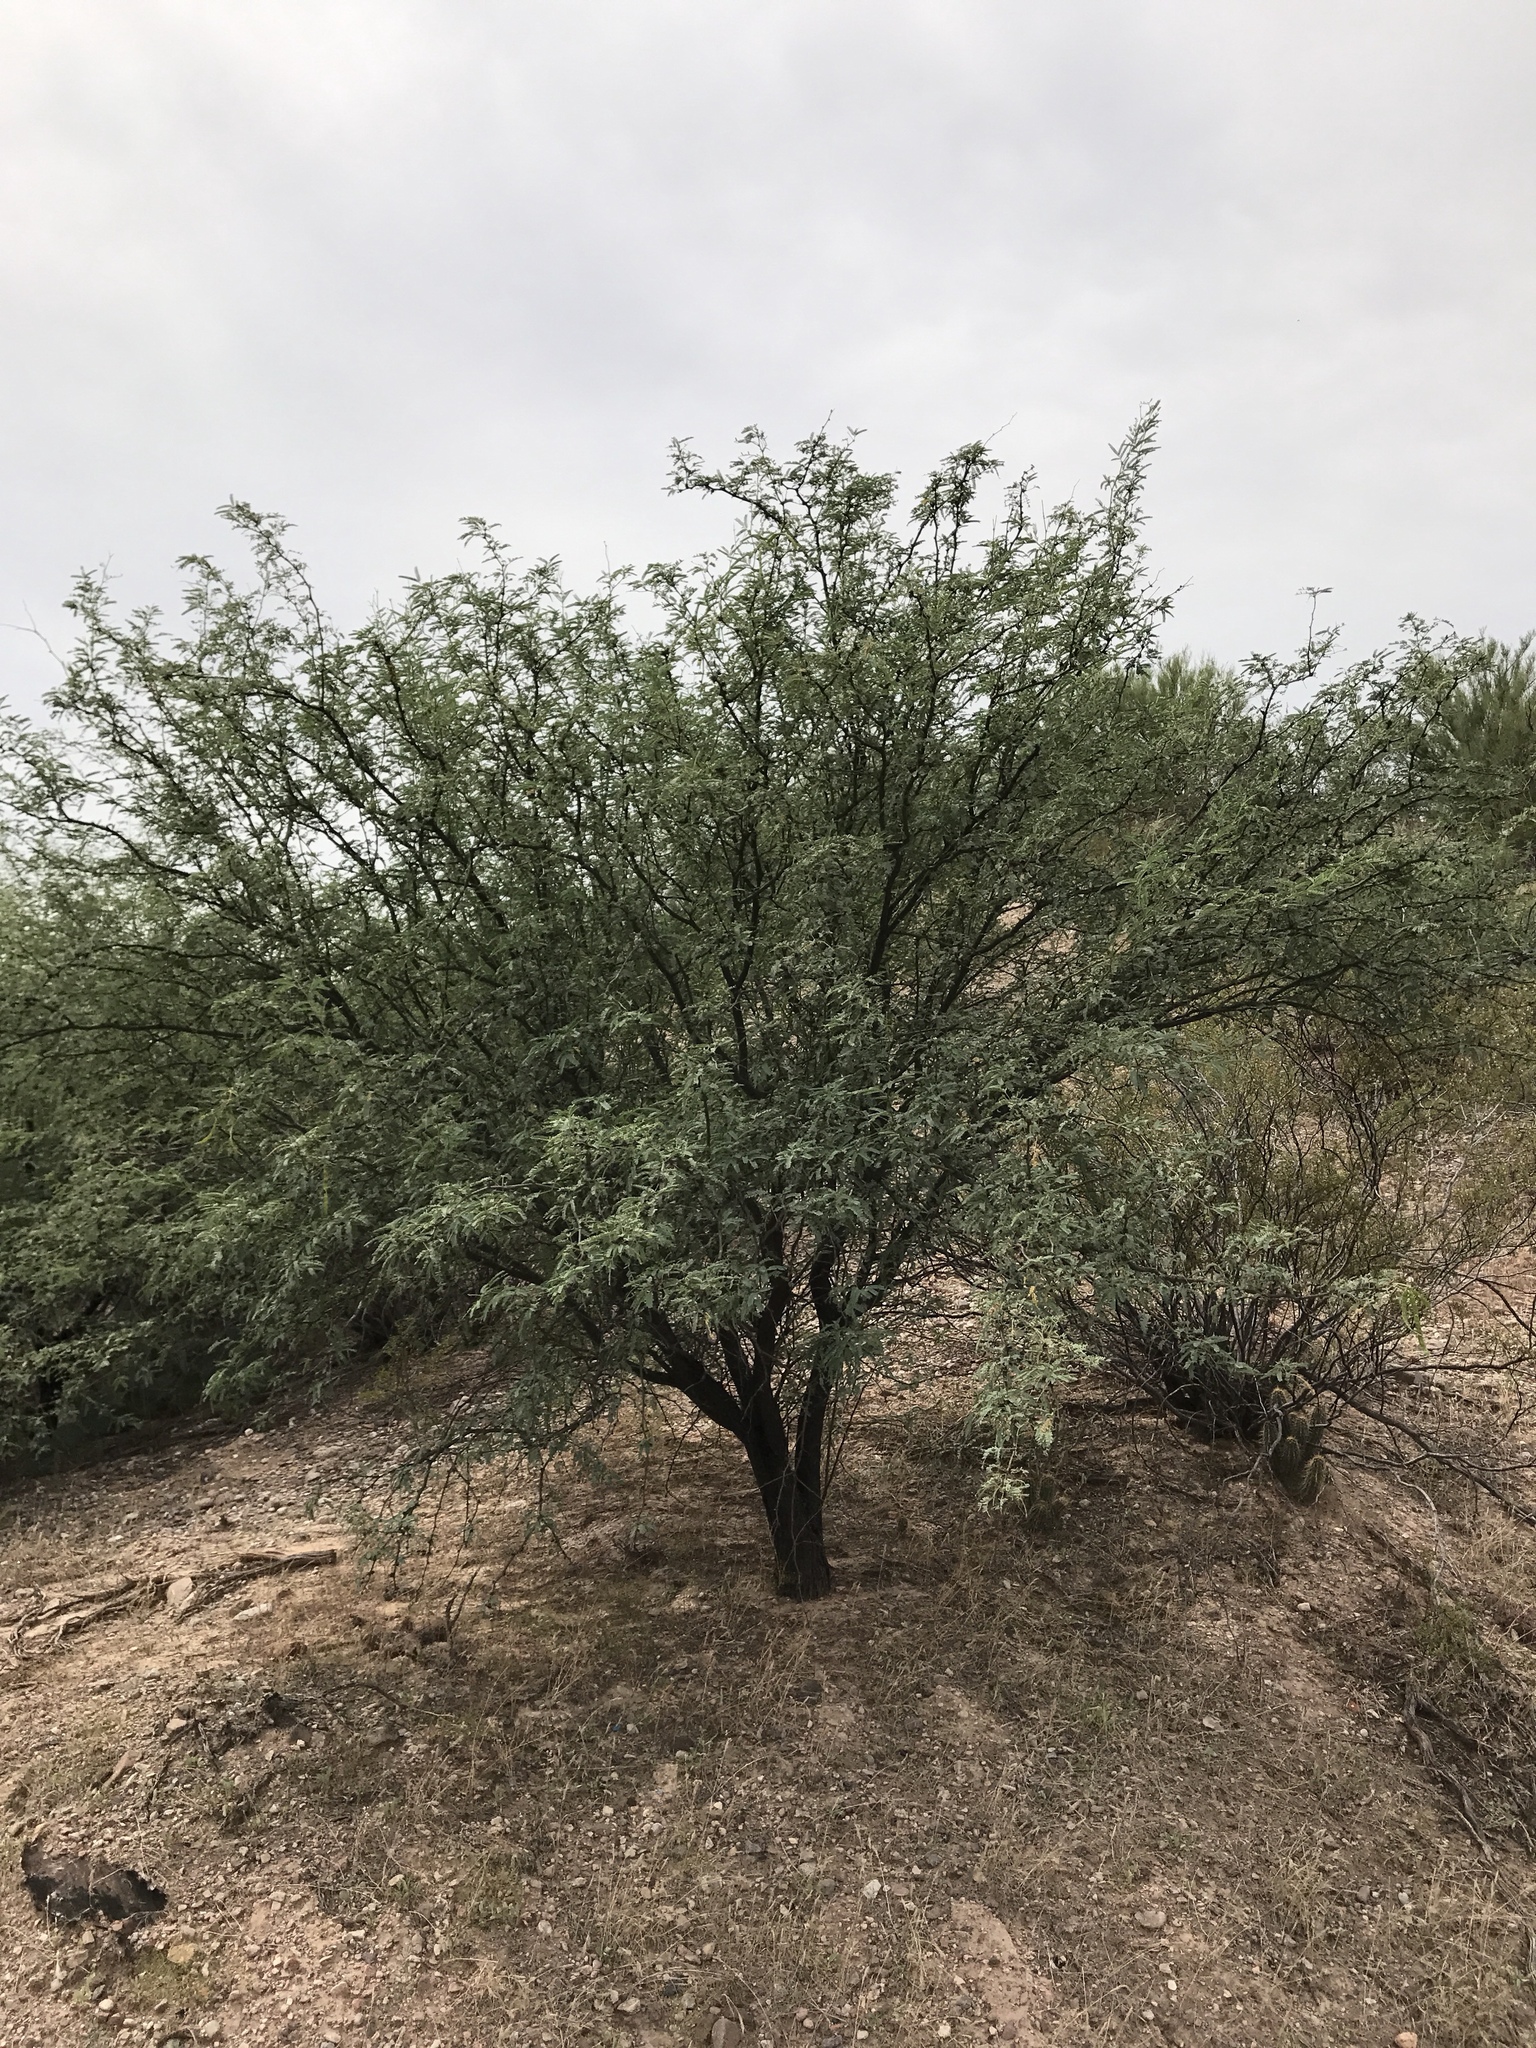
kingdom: Plantae
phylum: Tracheophyta
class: Magnoliopsida
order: Fabales
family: Fabaceae
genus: Prosopis
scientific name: Prosopis velutina
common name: Velvet mesquite
